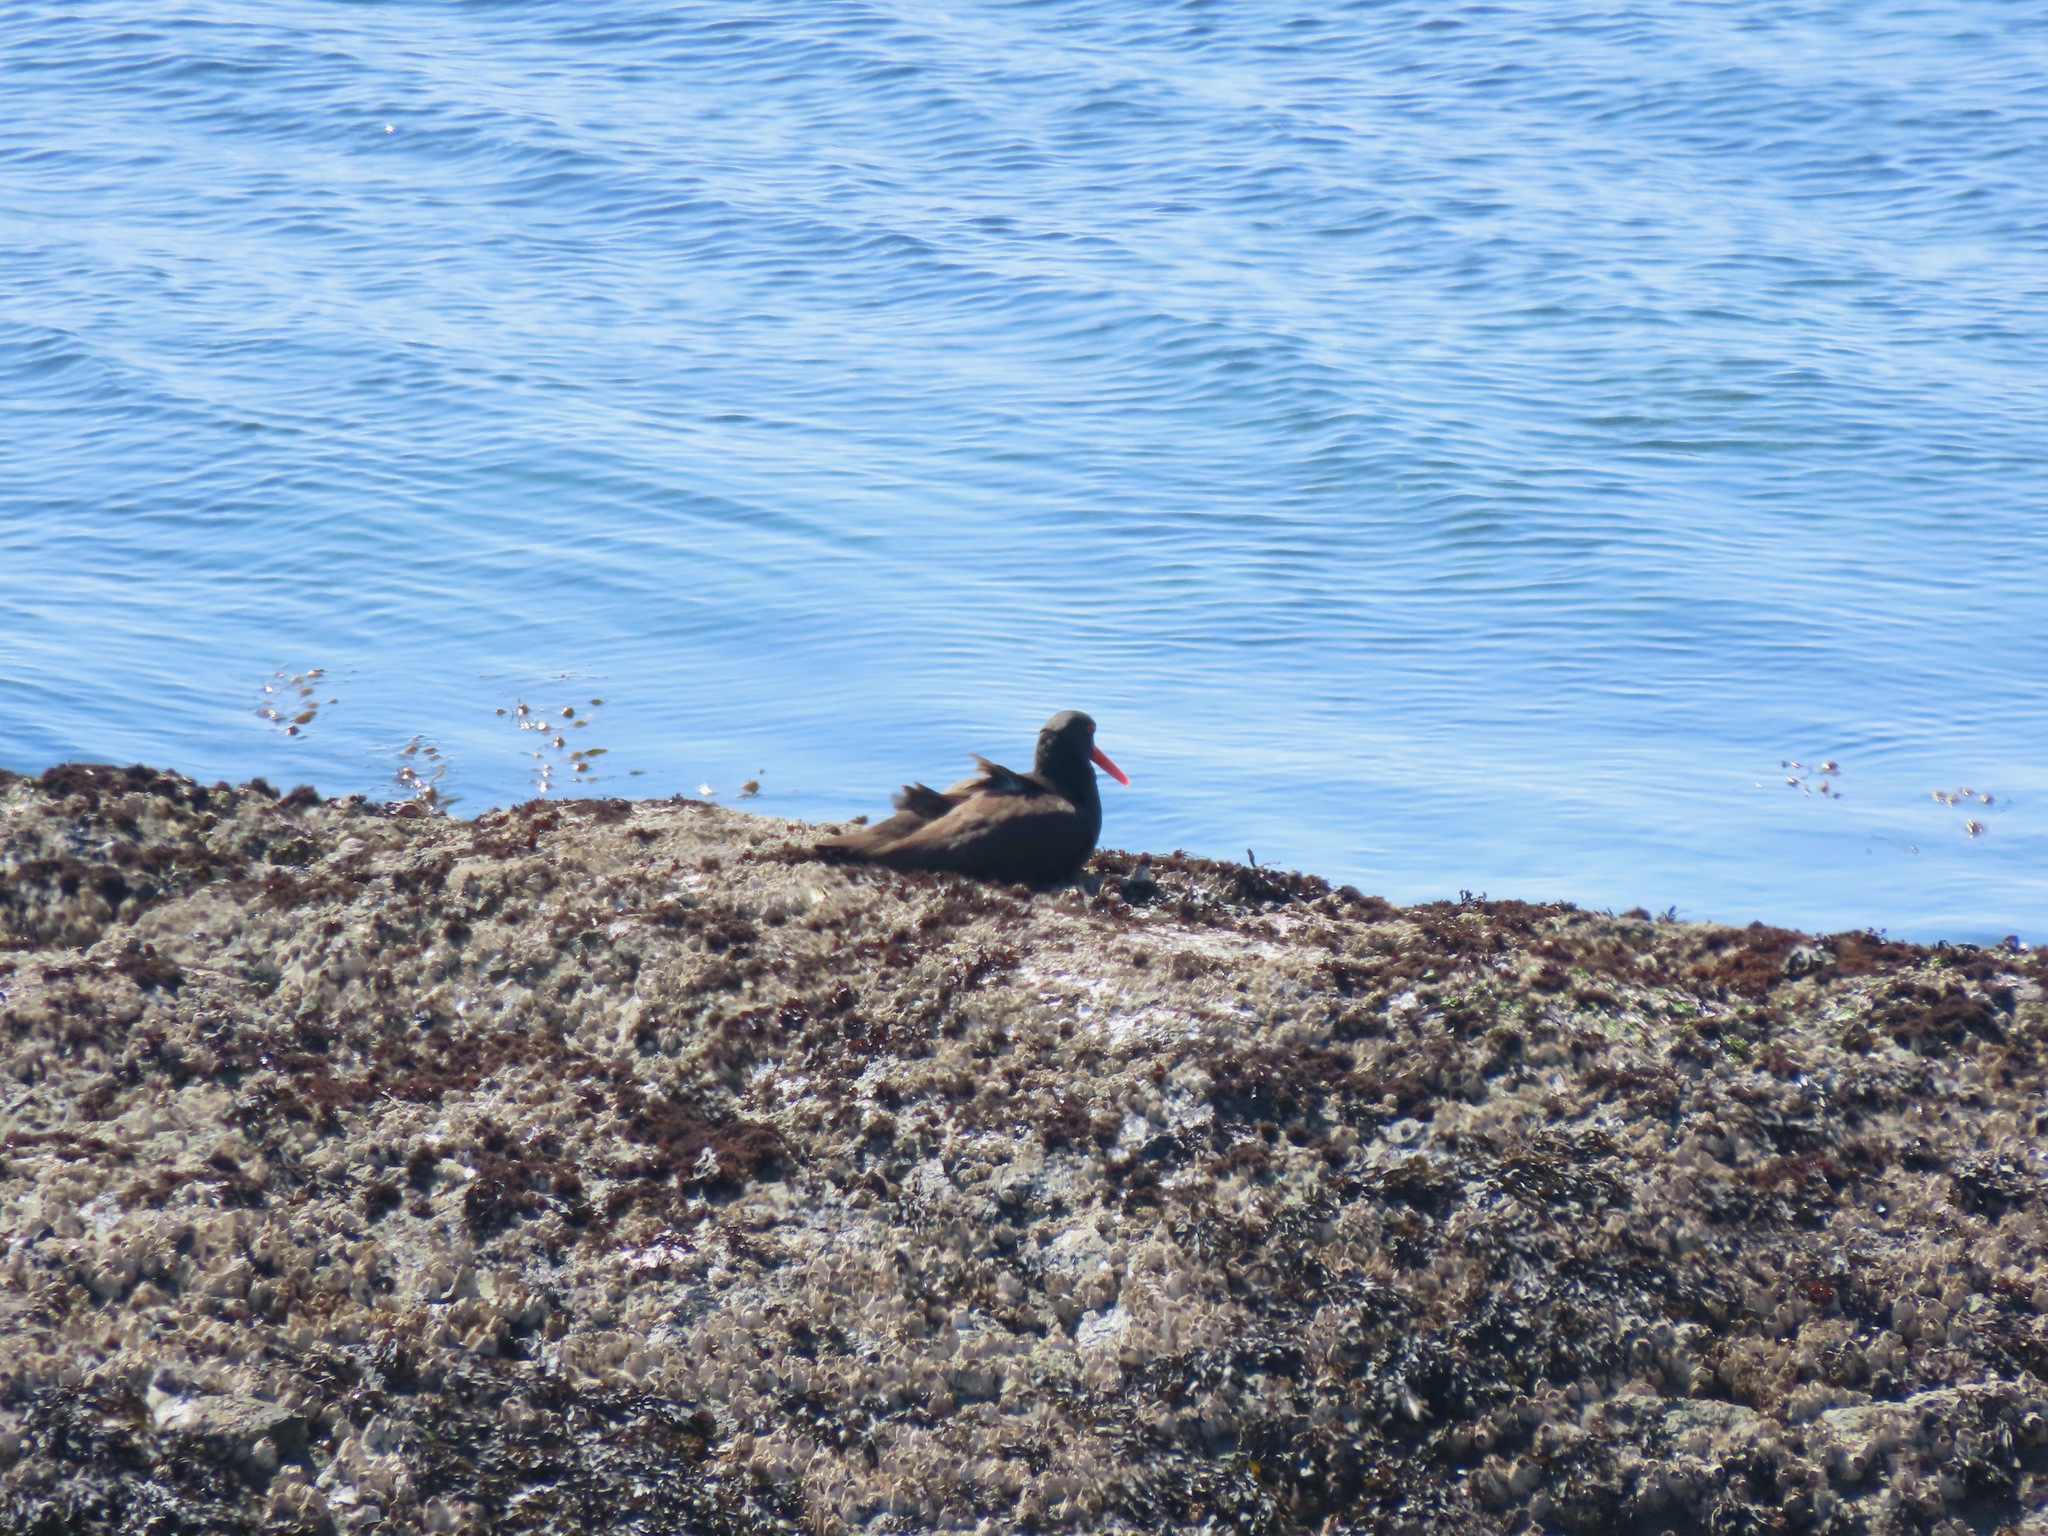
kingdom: Animalia
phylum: Chordata
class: Aves
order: Charadriiformes
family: Haematopodidae
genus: Haematopus
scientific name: Haematopus bachmani
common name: Black oystercatcher
